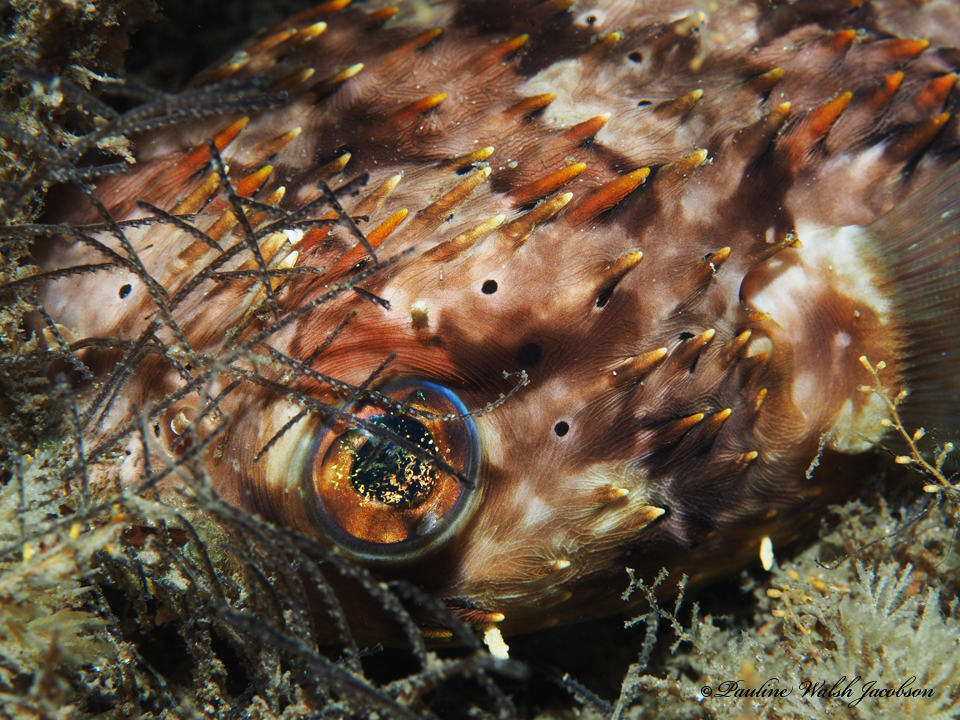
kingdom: Animalia
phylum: Chordata
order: Tetraodontiformes
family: Diodontidae
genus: Diodon
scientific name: Diodon holocanthus
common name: Balloonfish
